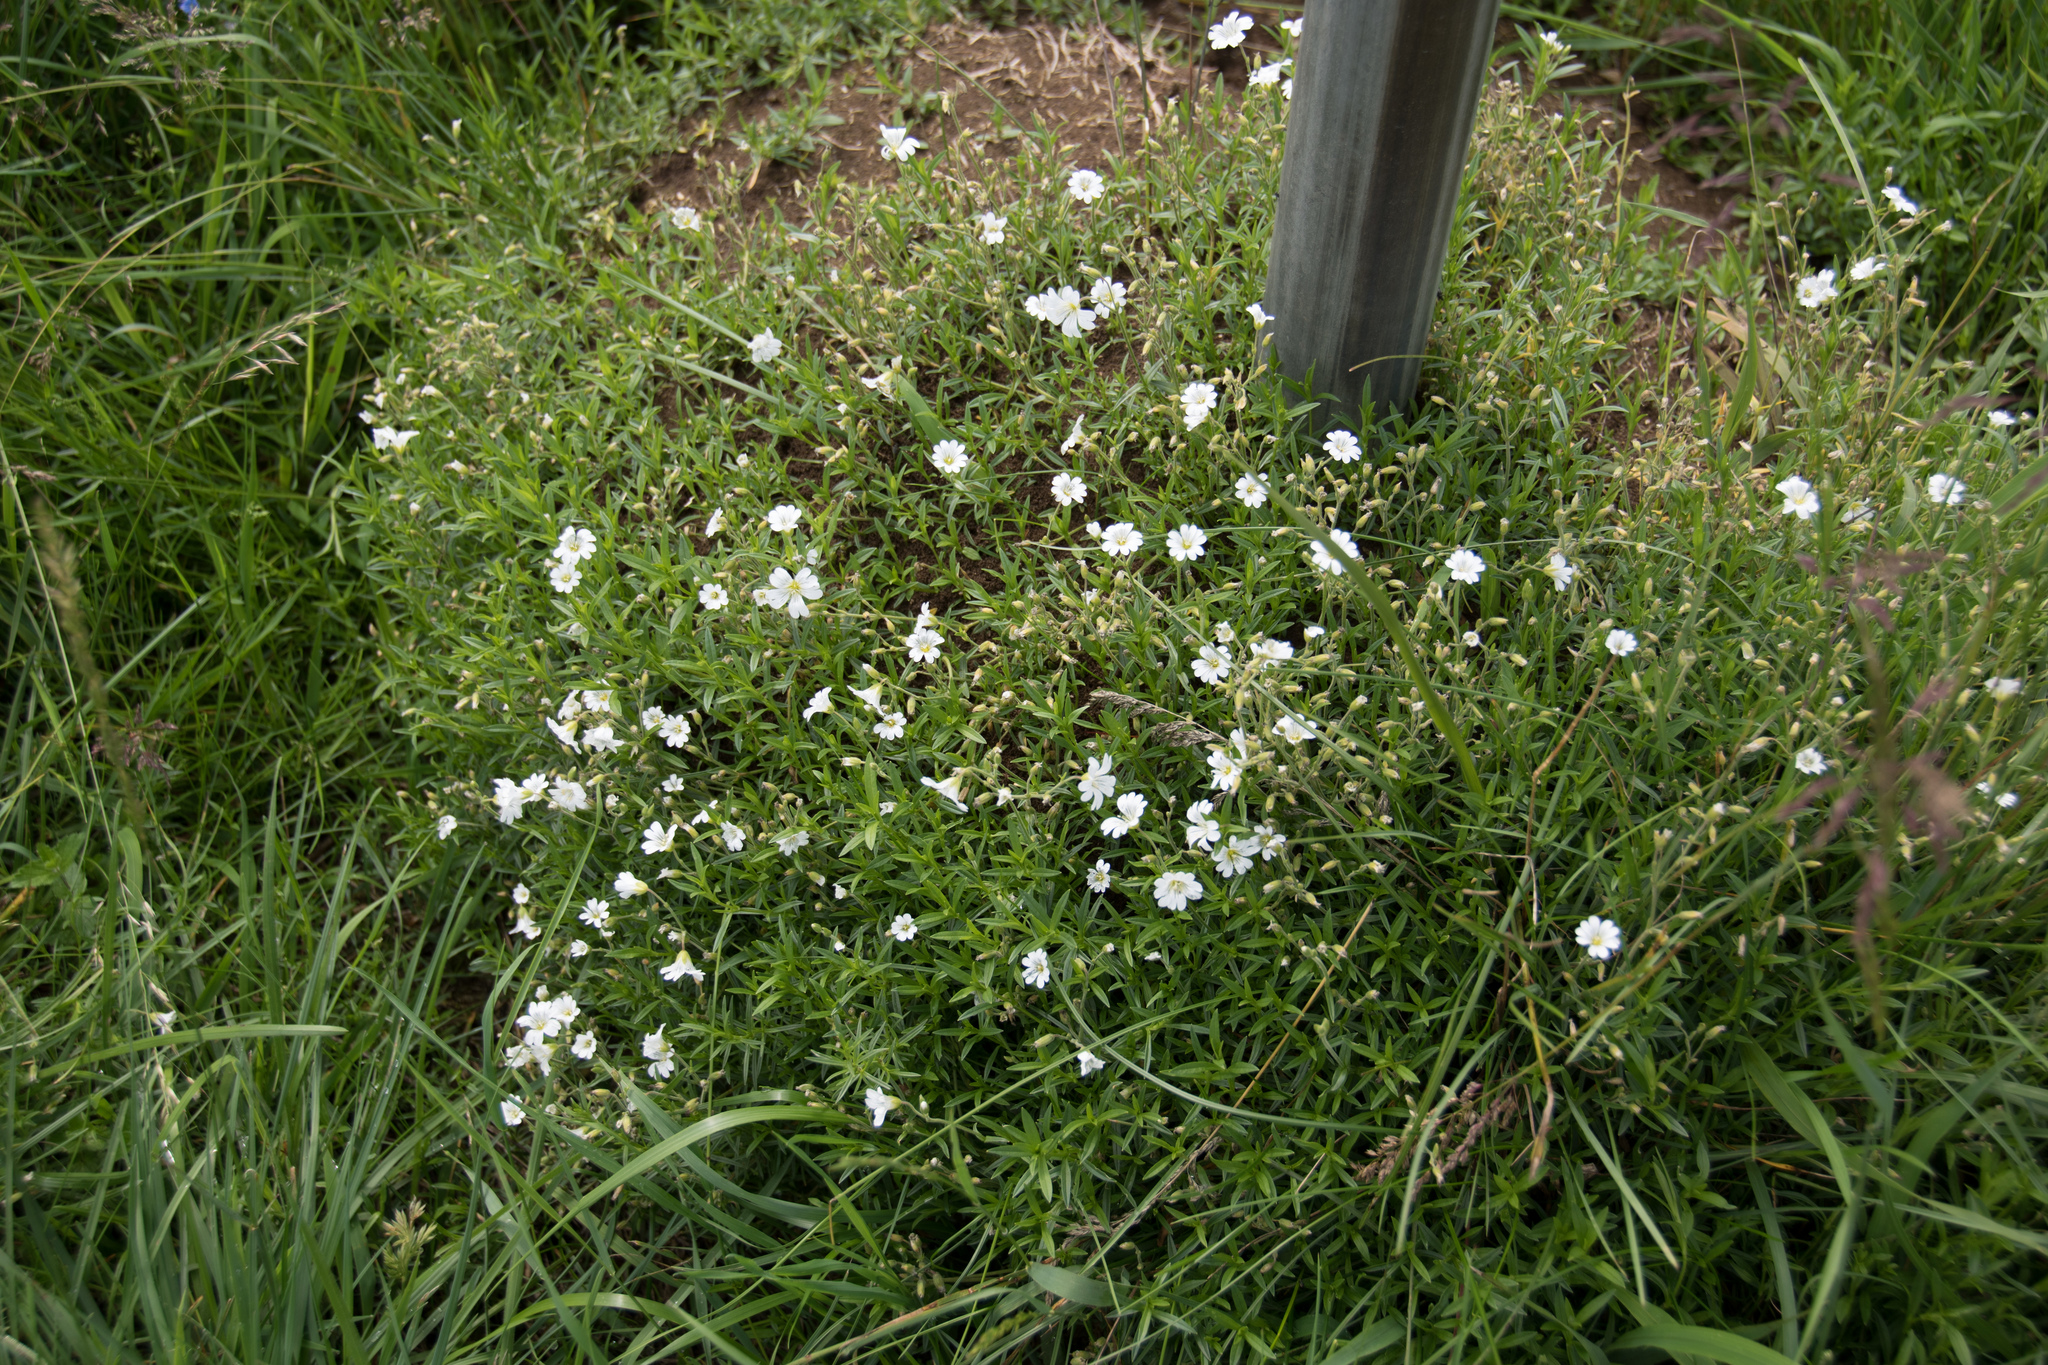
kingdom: Plantae
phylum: Tracheophyta
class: Magnoliopsida
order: Caryophyllales
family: Caryophyllaceae
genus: Cerastium
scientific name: Cerastium arvense
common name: Field mouse-ear
